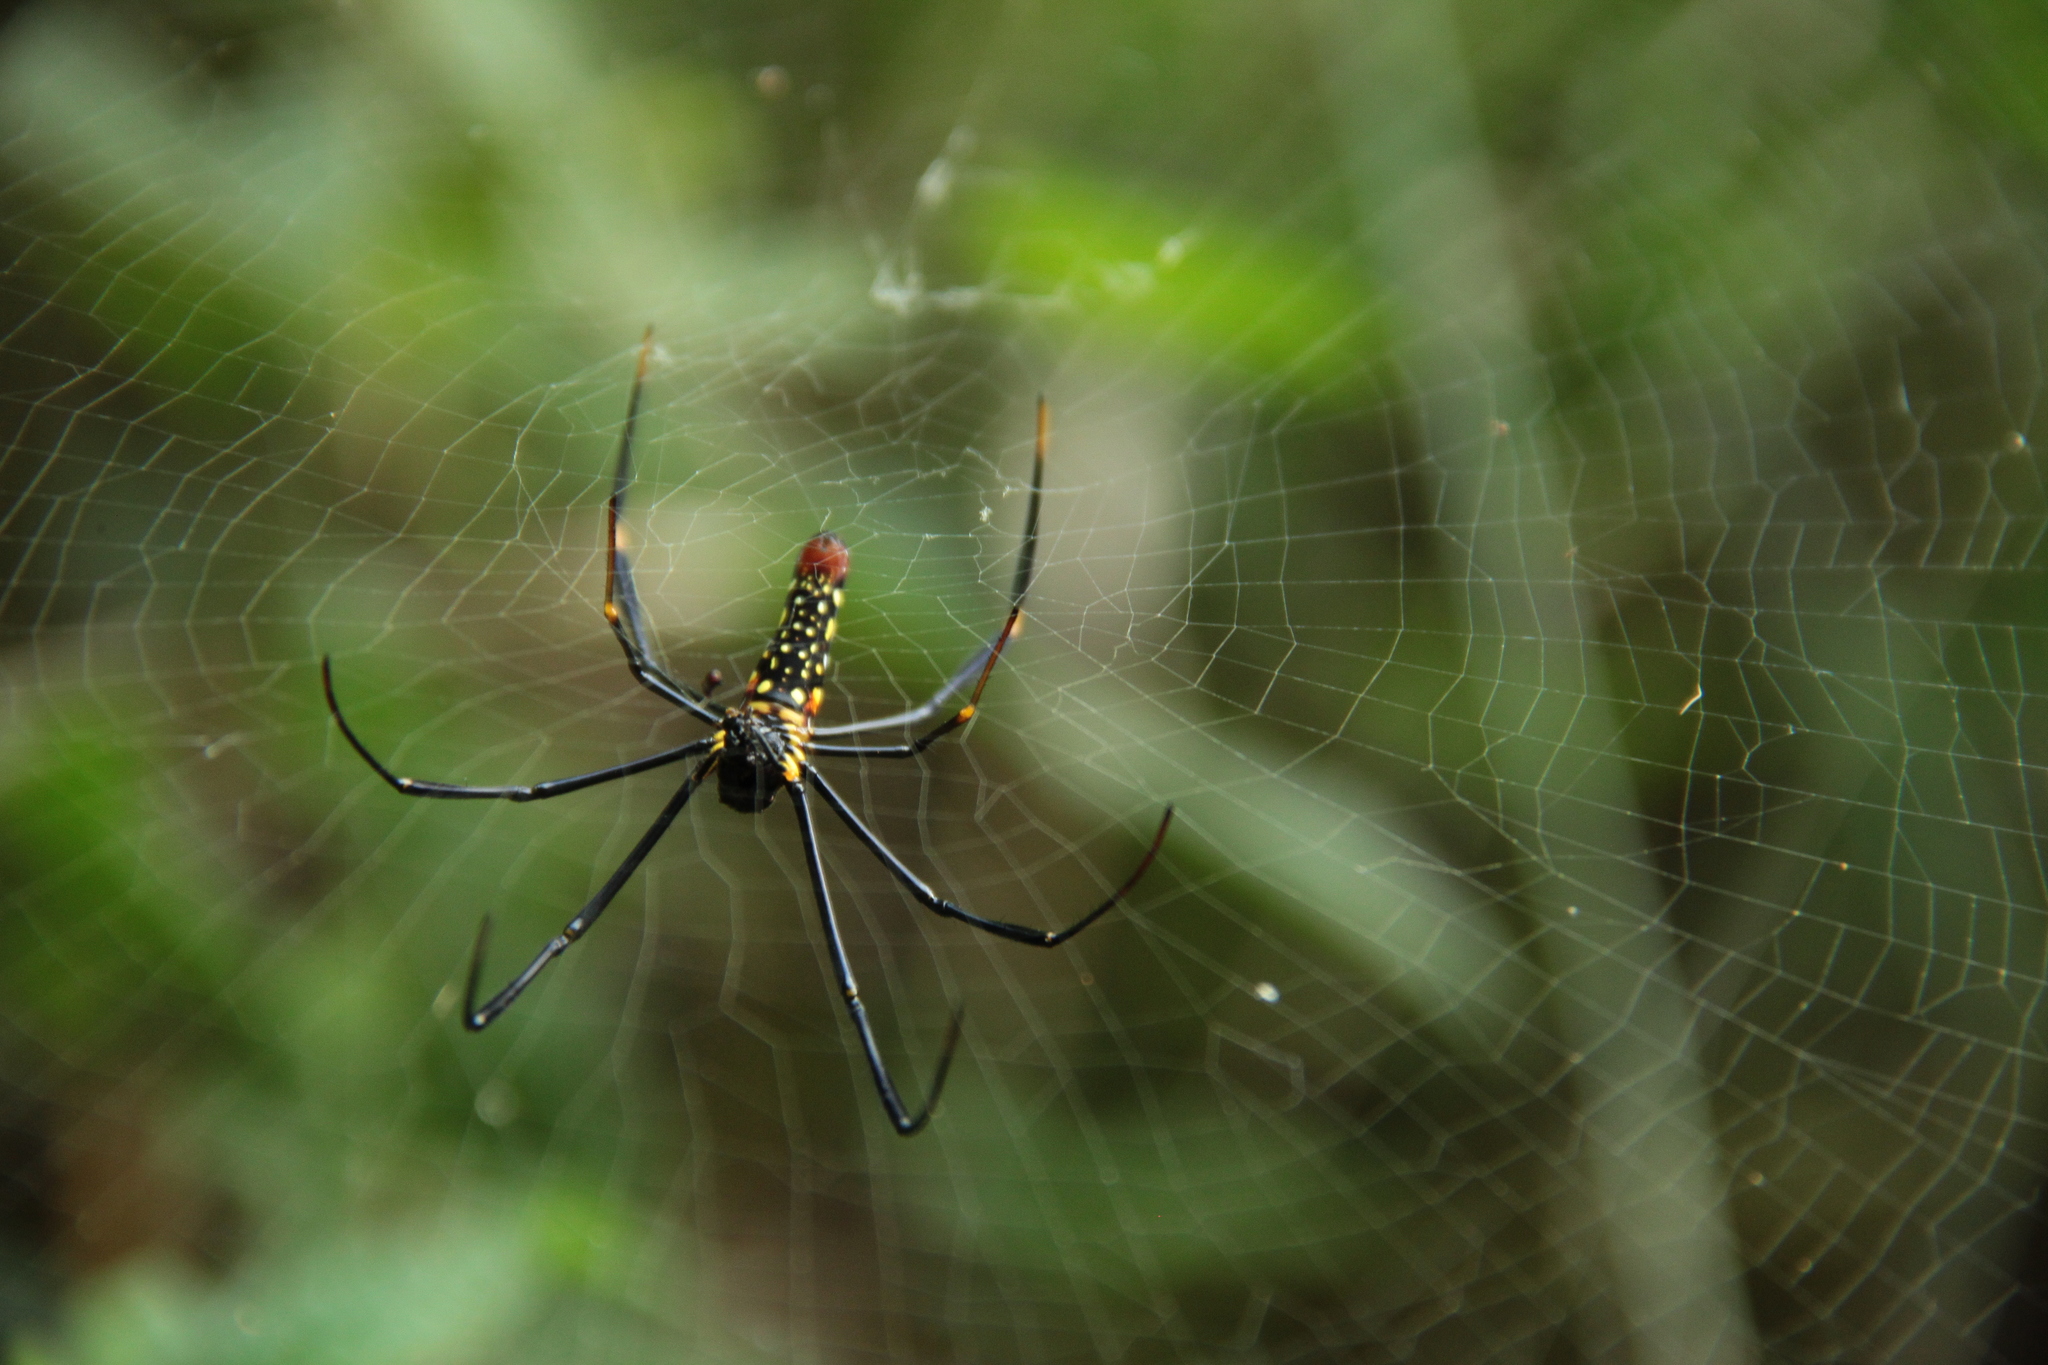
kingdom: Animalia
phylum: Arthropoda
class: Arachnida
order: Araneae
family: Araneidae
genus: Nephila
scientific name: Nephila pilipes
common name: Giant golden orb weaver
